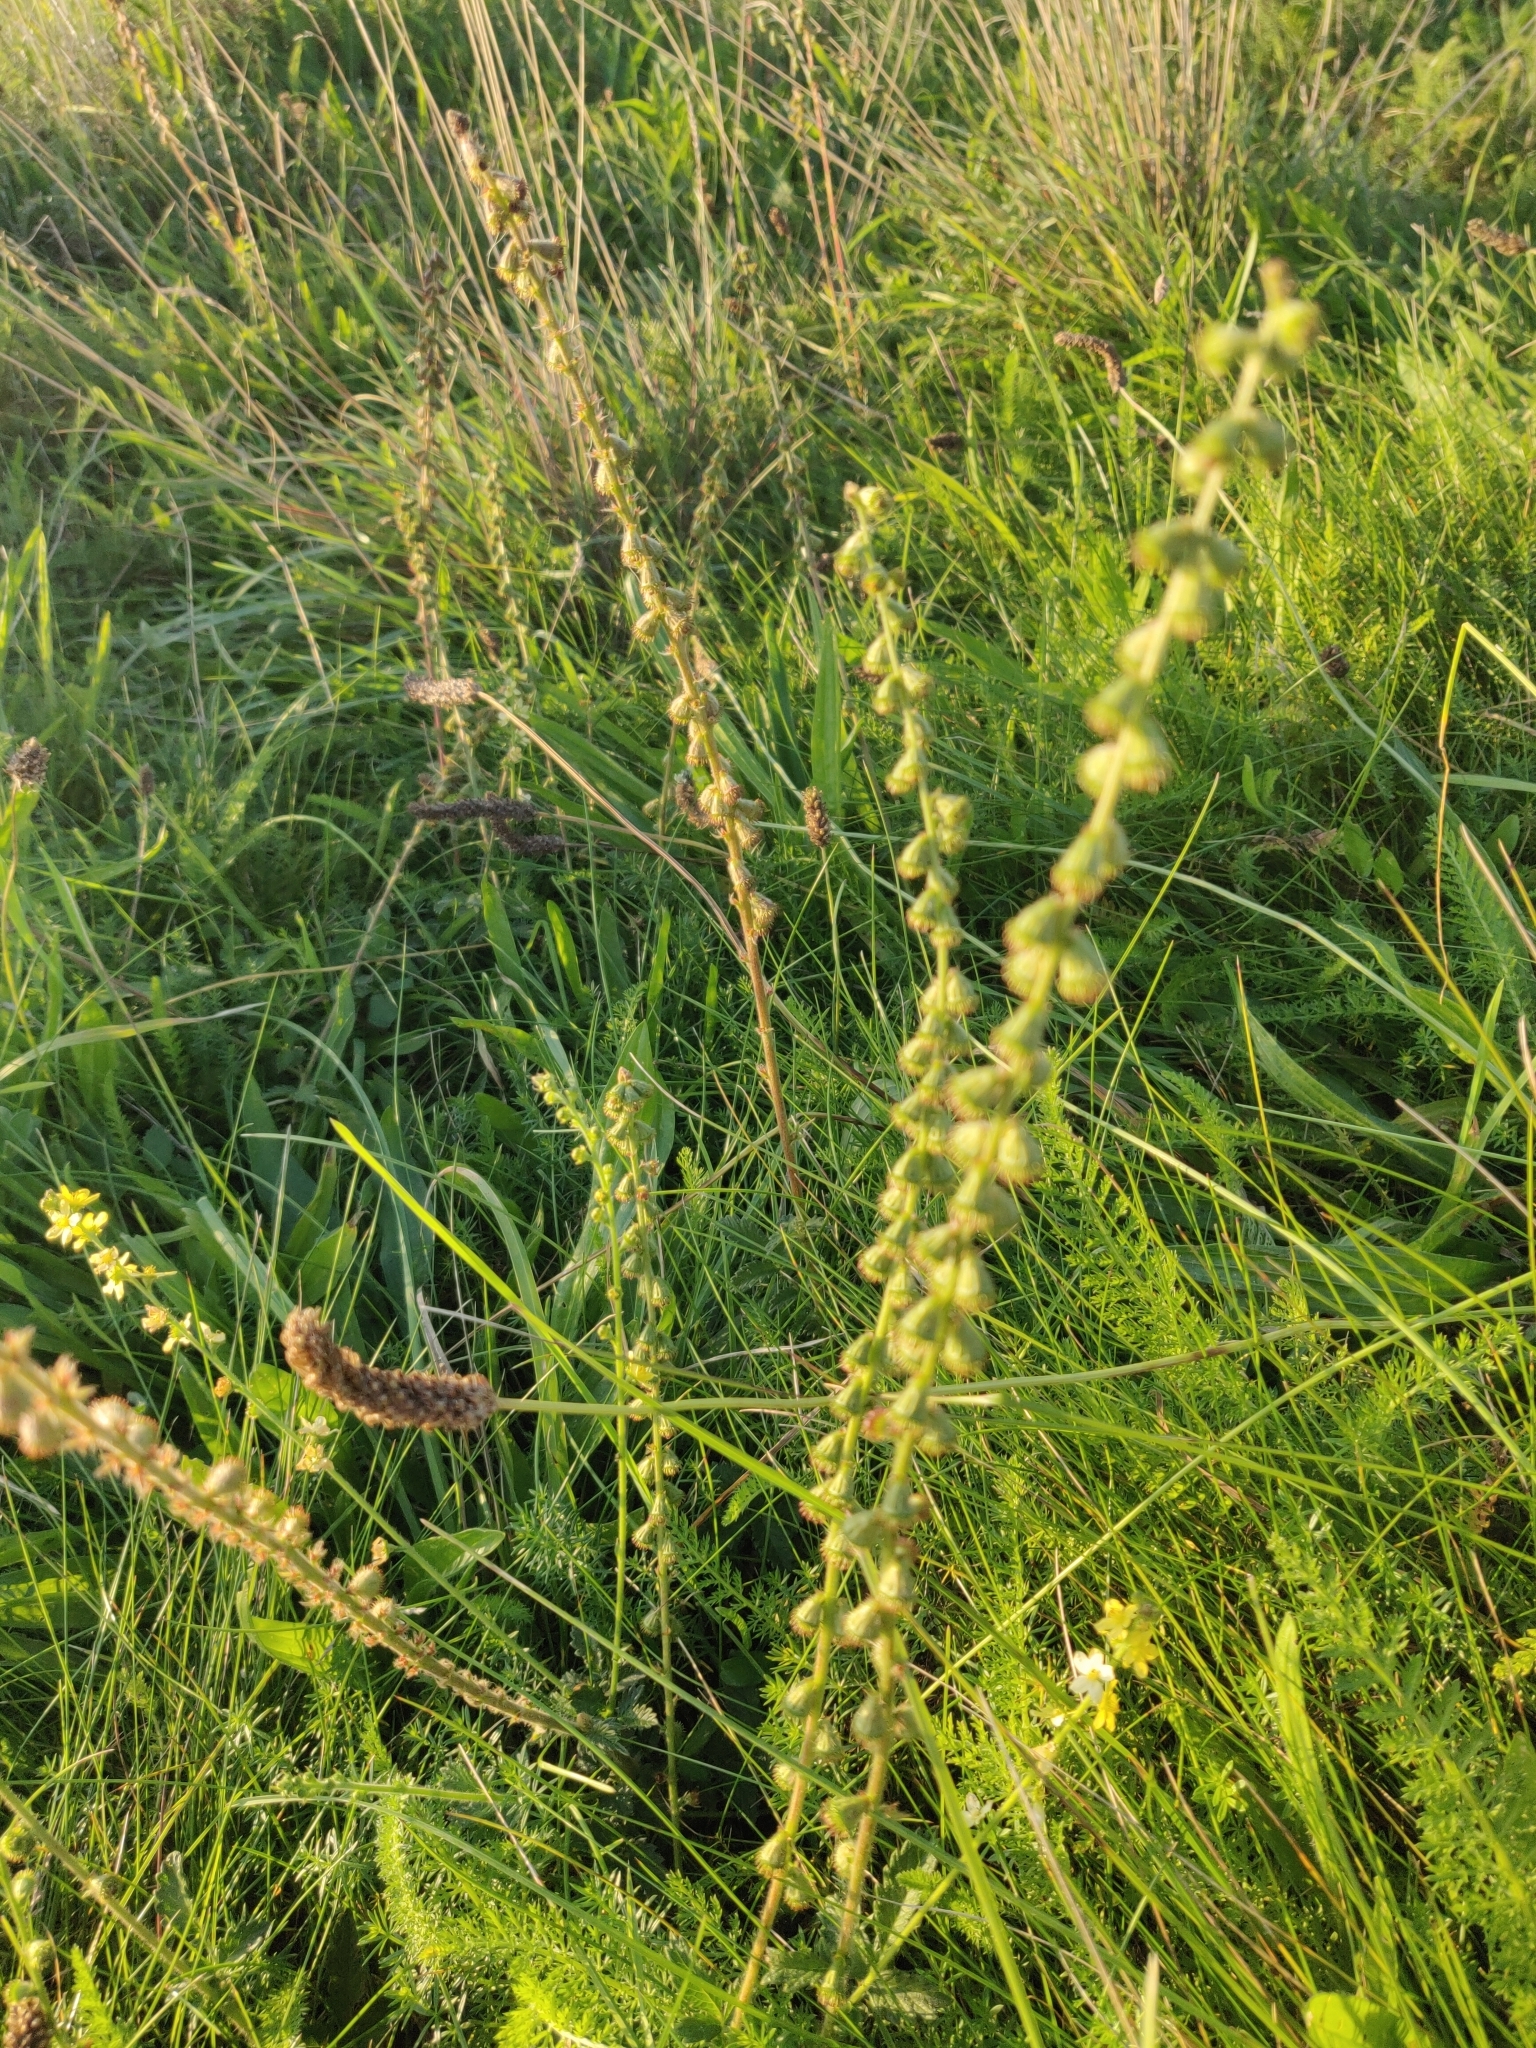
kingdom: Plantae
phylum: Tracheophyta
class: Magnoliopsida
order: Rosales
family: Rosaceae
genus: Agrimonia
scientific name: Agrimonia eupatoria
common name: Agrimony
